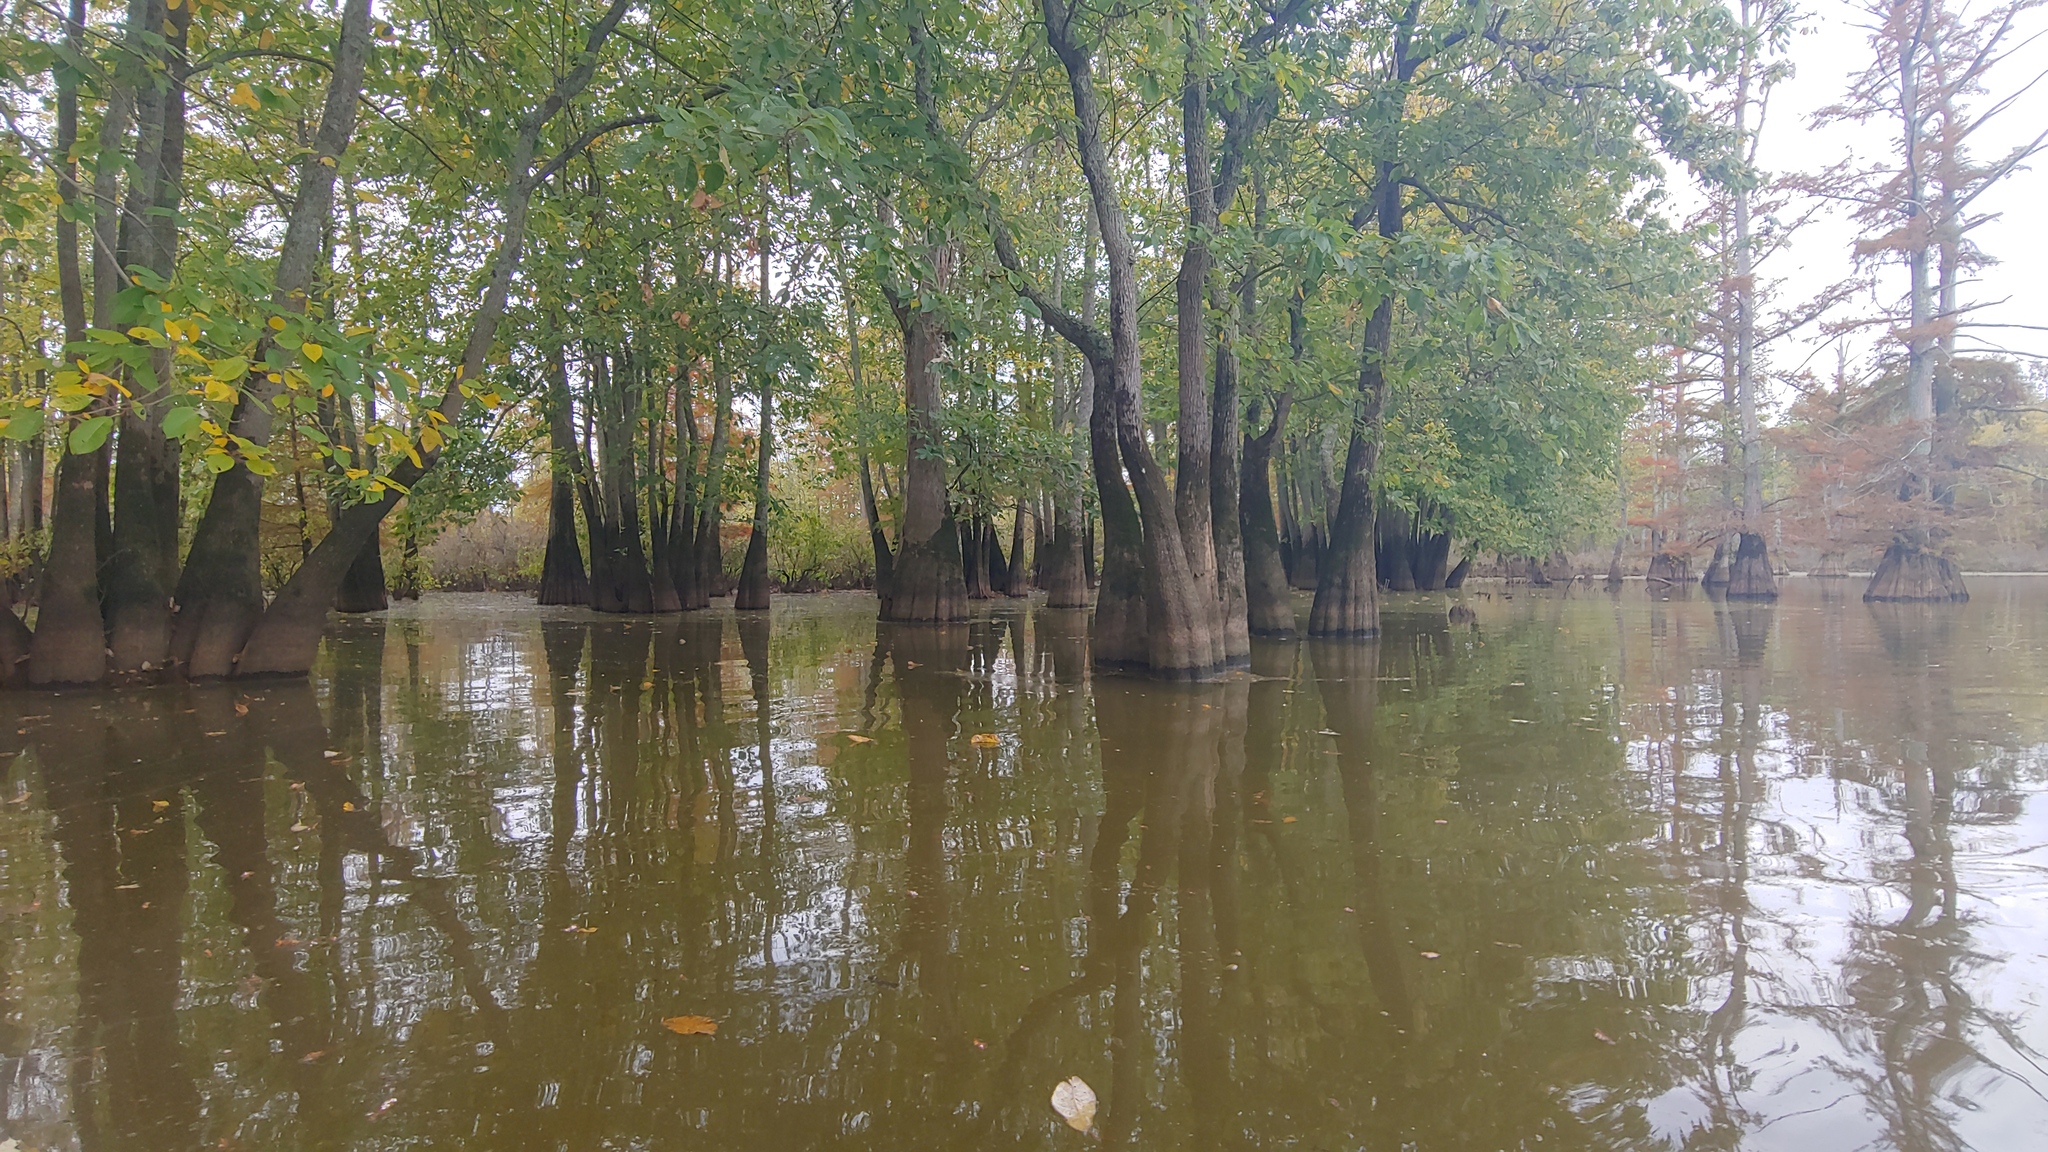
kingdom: Plantae
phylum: Tracheophyta
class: Magnoliopsida
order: Cornales
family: Nyssaceae
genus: Nyssa
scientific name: Nyssa aquatica
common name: Swamp tupelo
